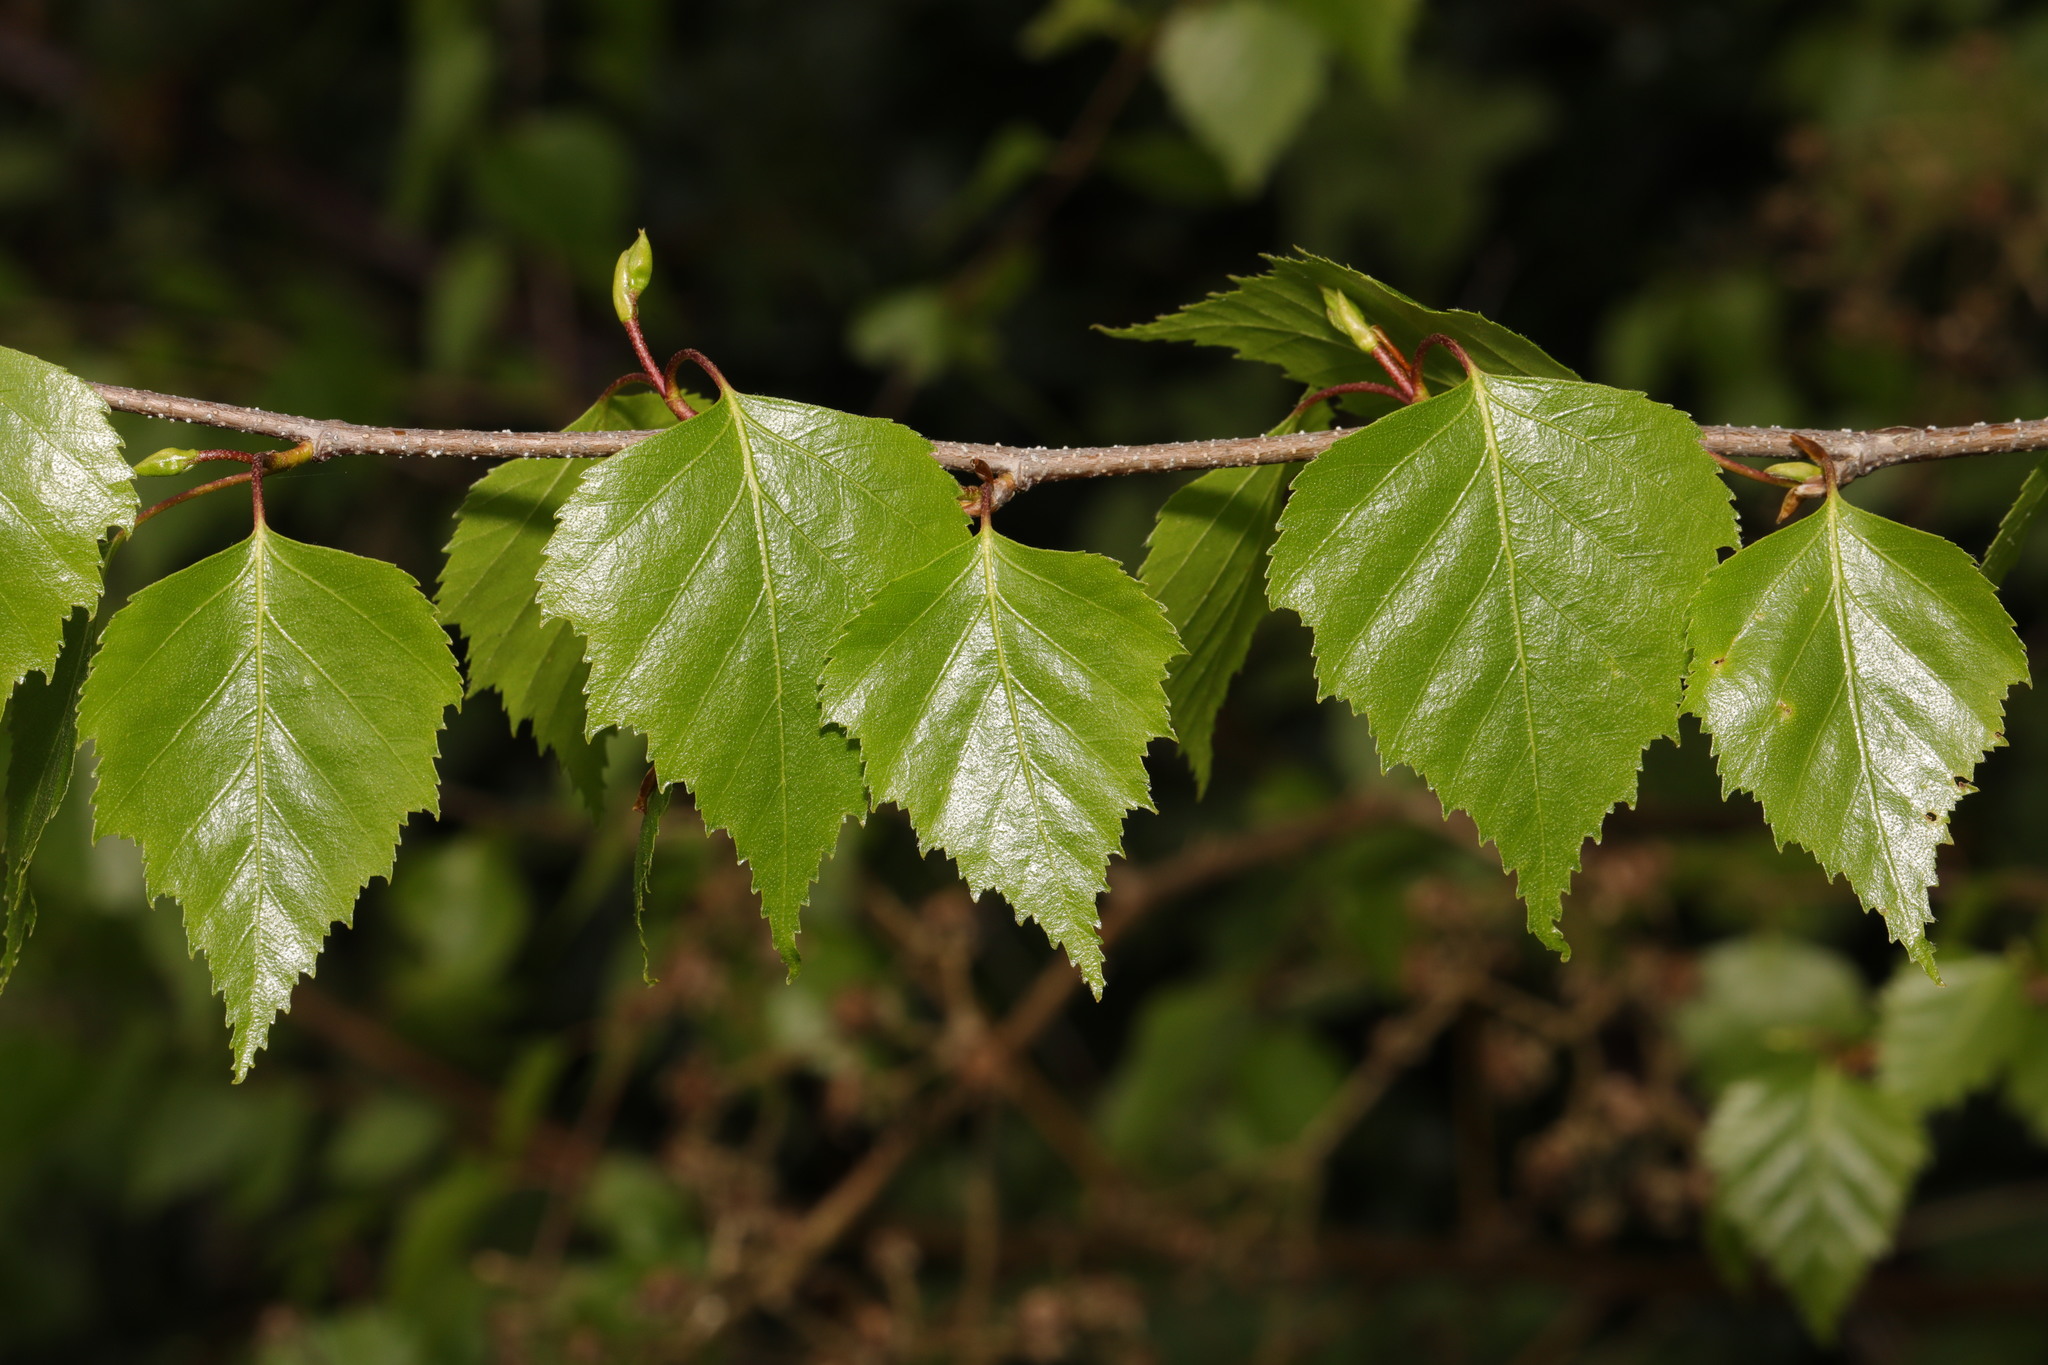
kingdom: Plantae
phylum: Tracheophyta
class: Magnoliopsida
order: Fagales
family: Betulaceae
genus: Betula
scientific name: Betula pendula
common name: Silver birch
